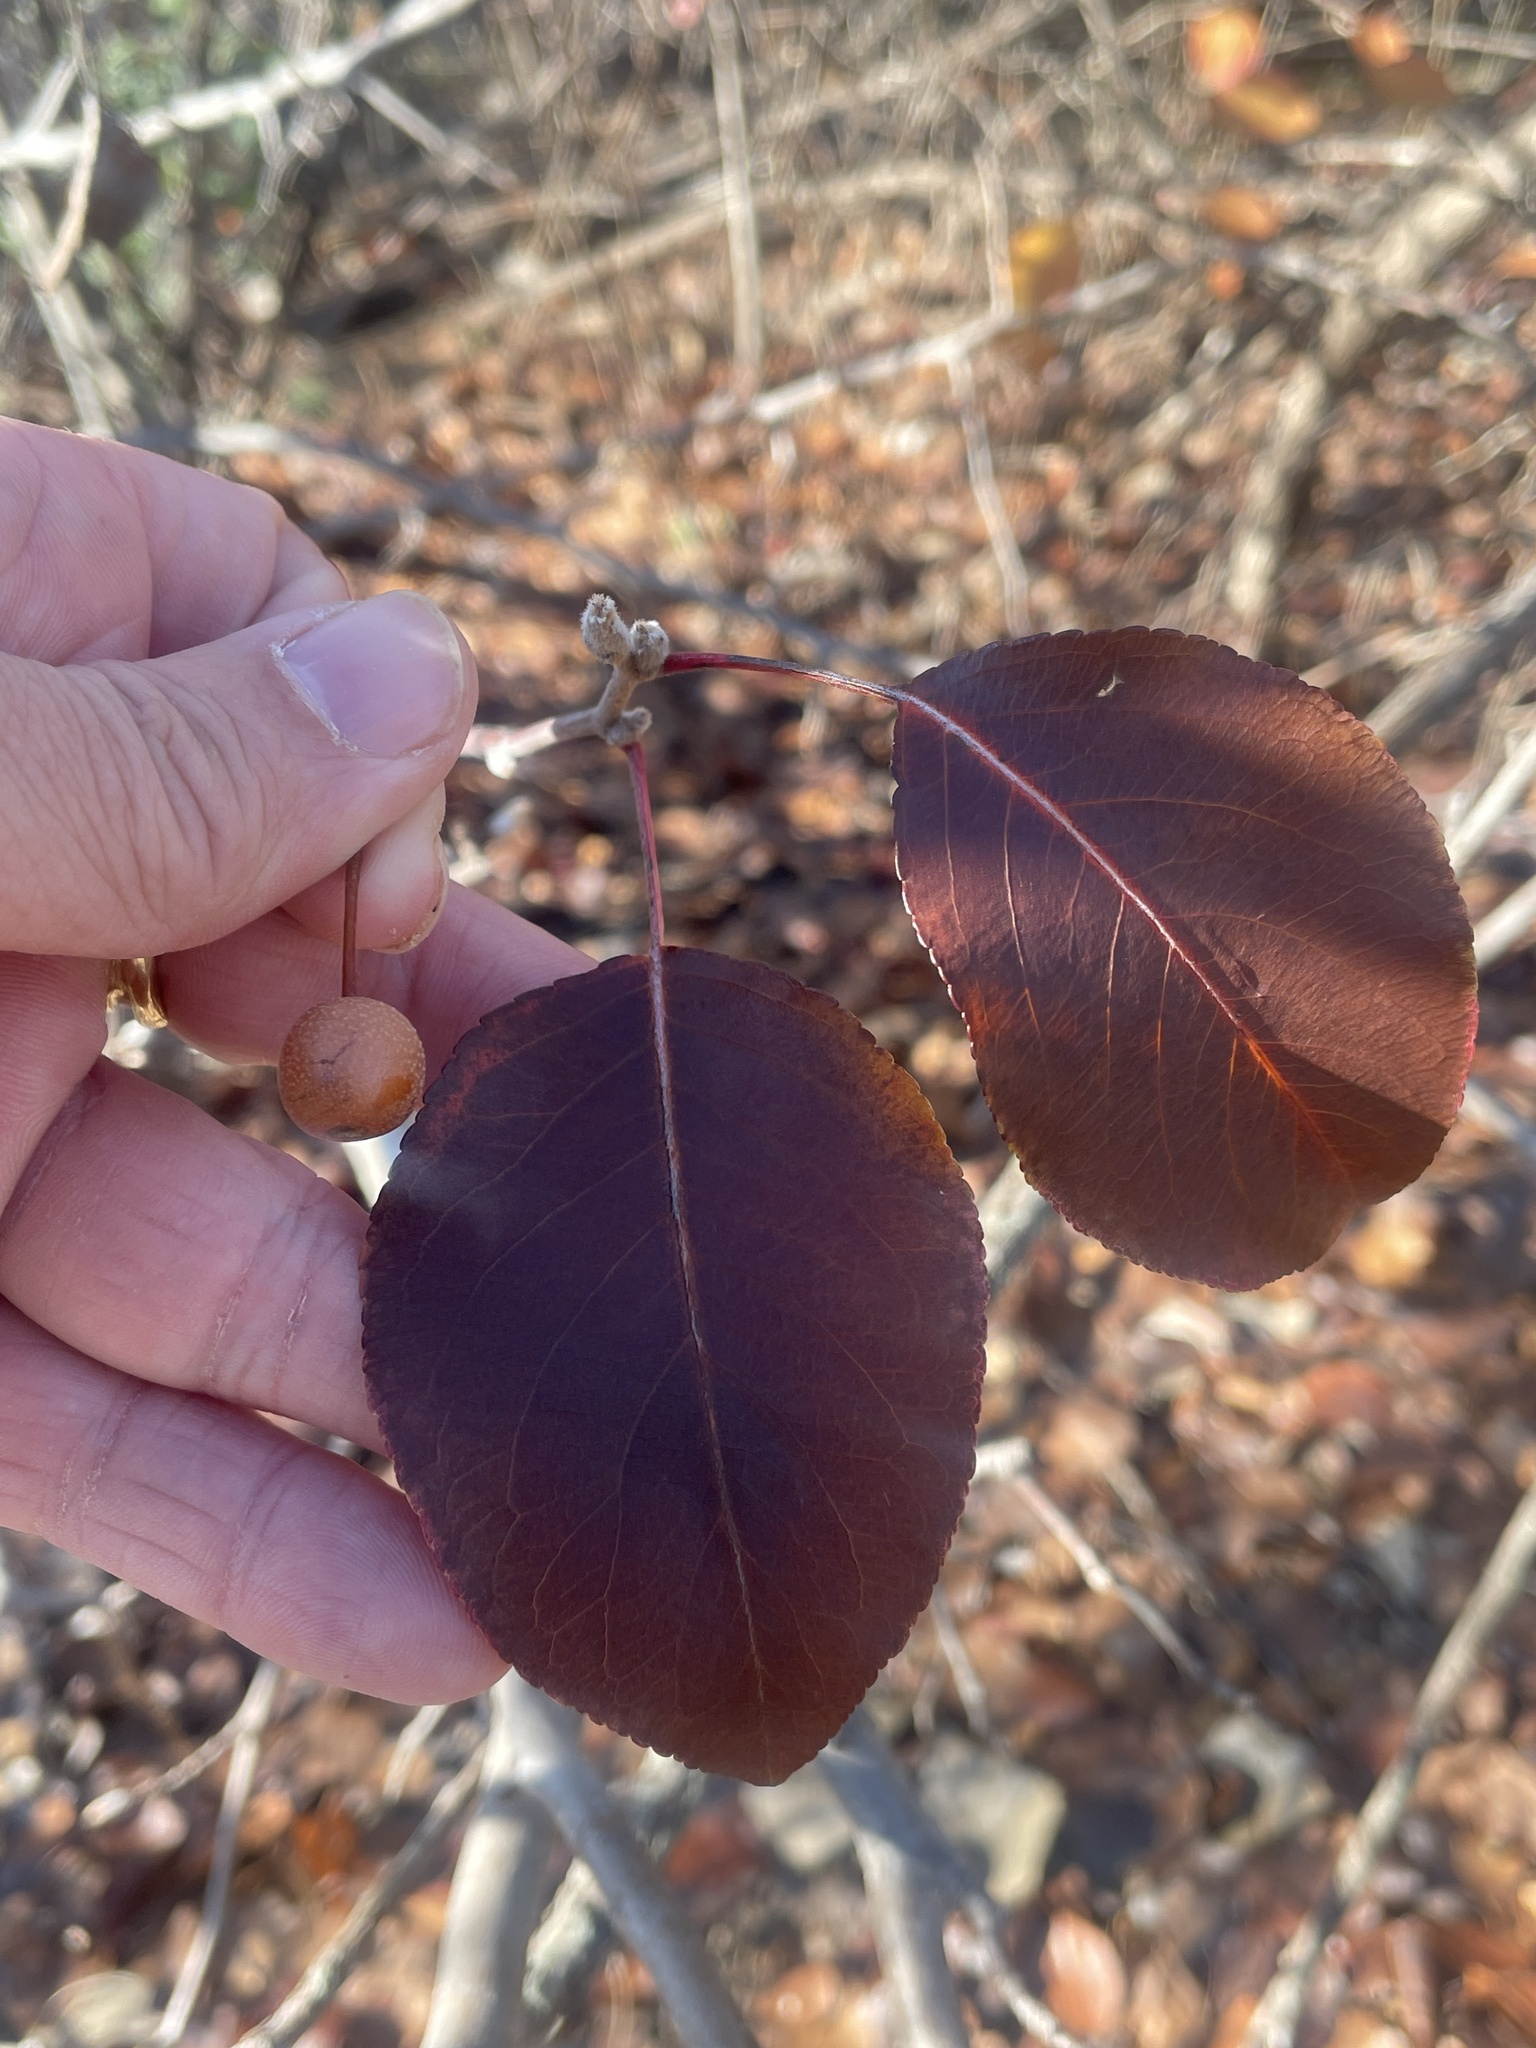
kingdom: Plantae
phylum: Tracheophyta
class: Magnoliopsida
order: Rosales
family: Rosaceae
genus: Pyrus
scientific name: Pyrus calleryana
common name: Callery pear
